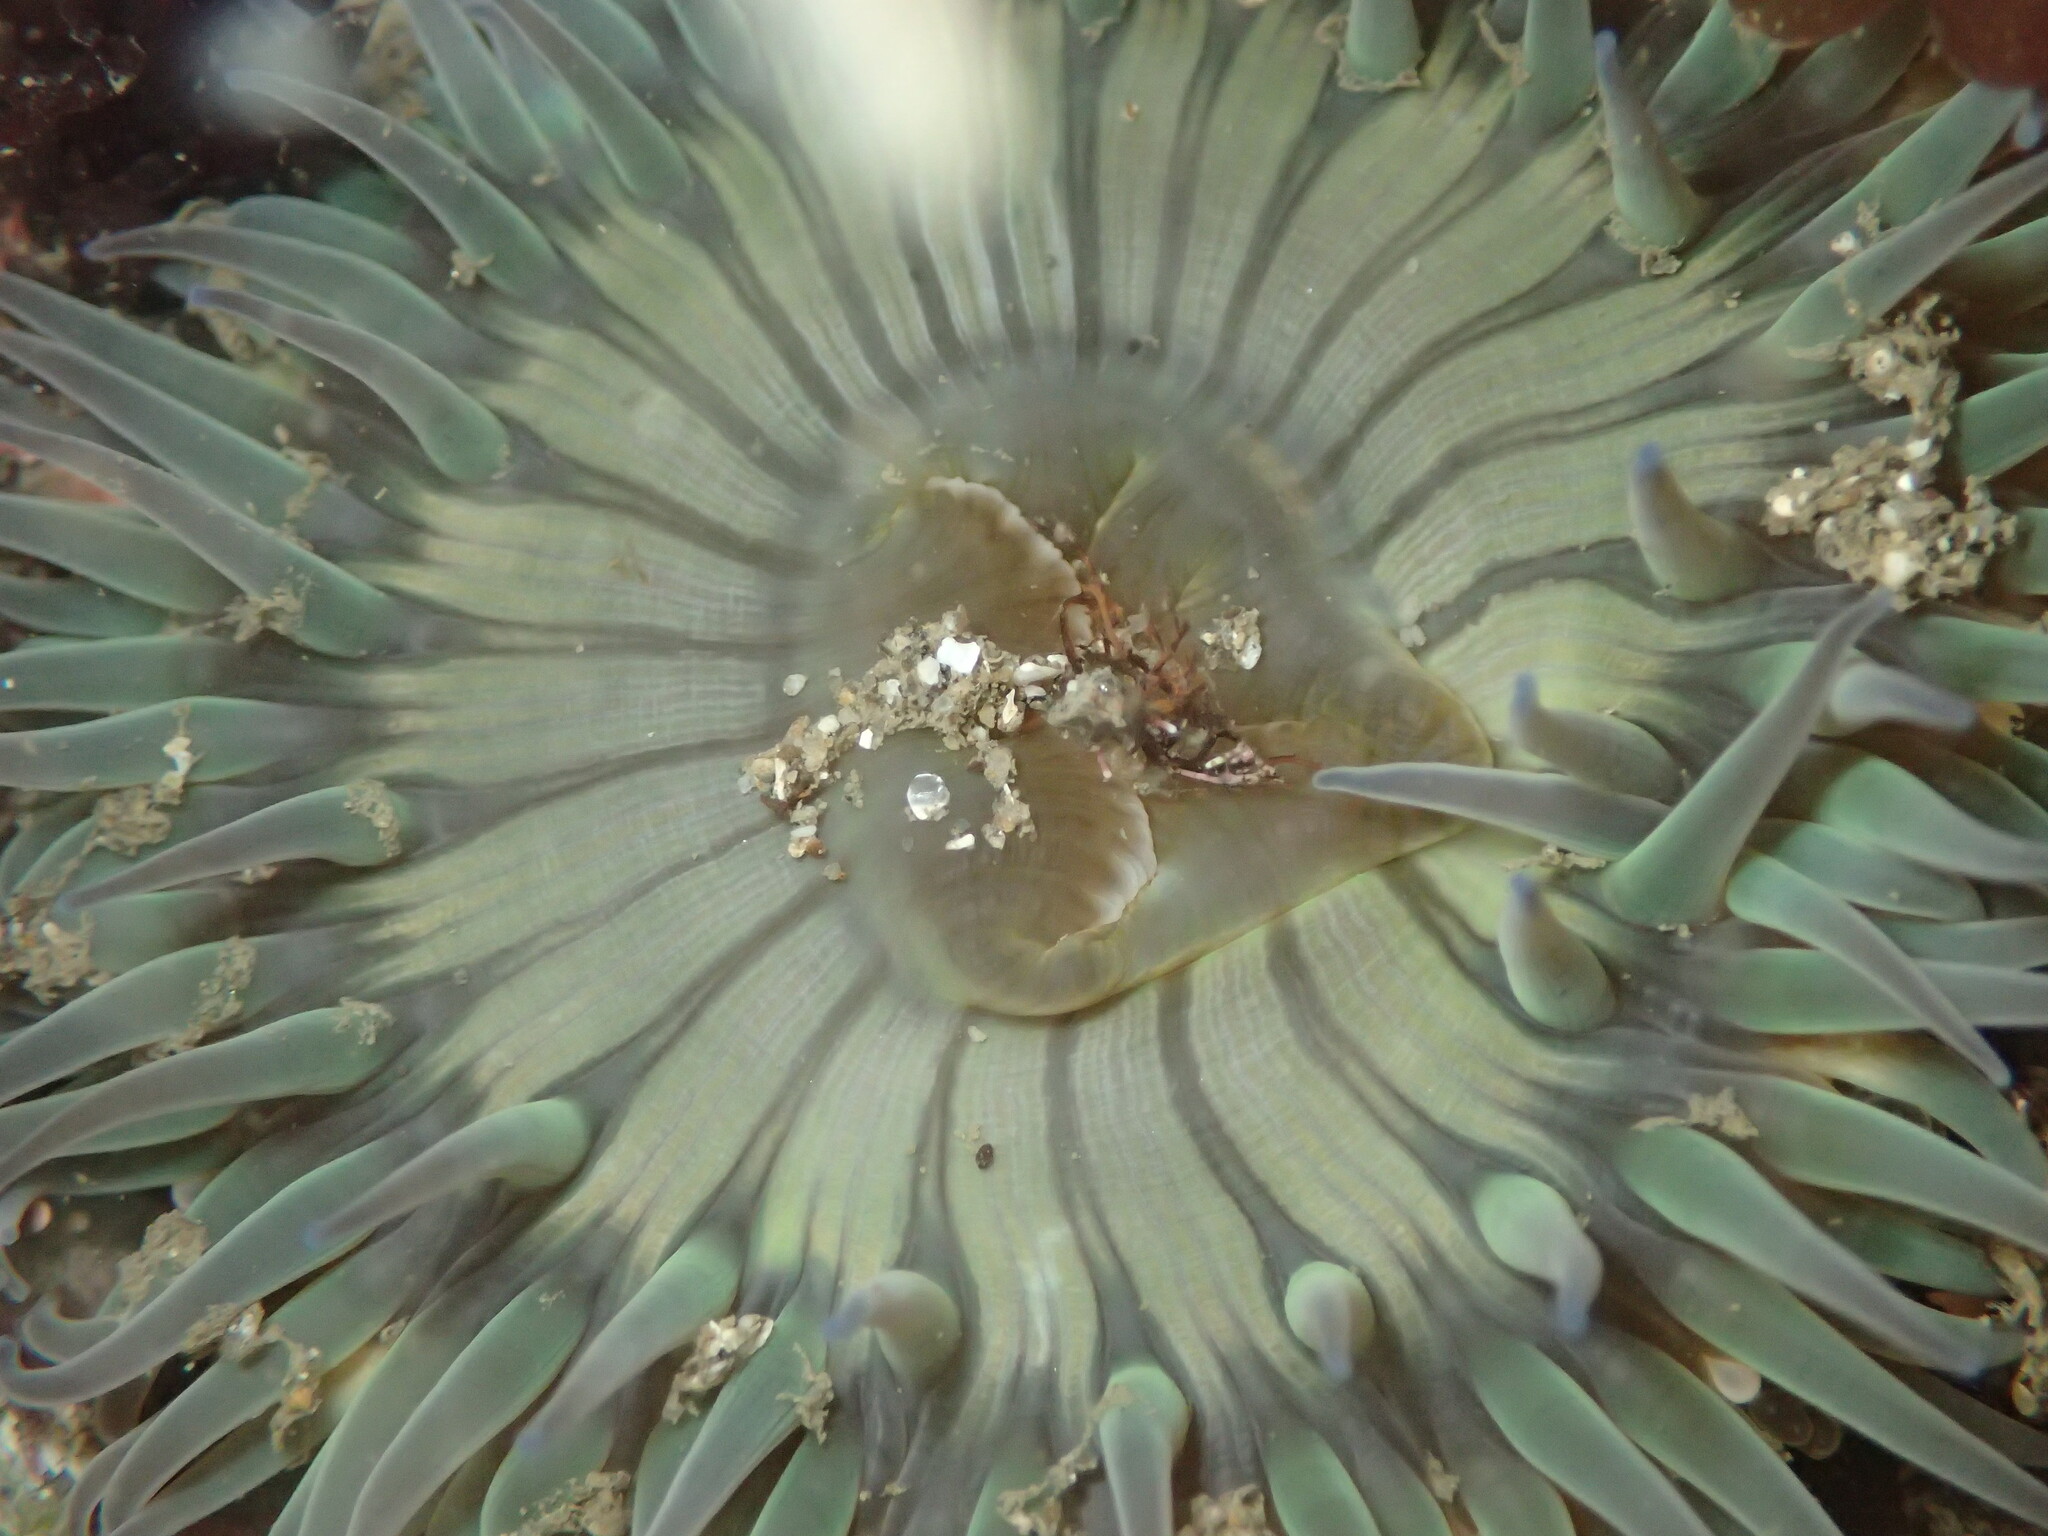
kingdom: Animalia
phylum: Cnidaria
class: Anthozoa
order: Actiniaria
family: Actiniidae
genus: Anthopleura
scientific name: Anthopleura sola
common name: Sun anemone
